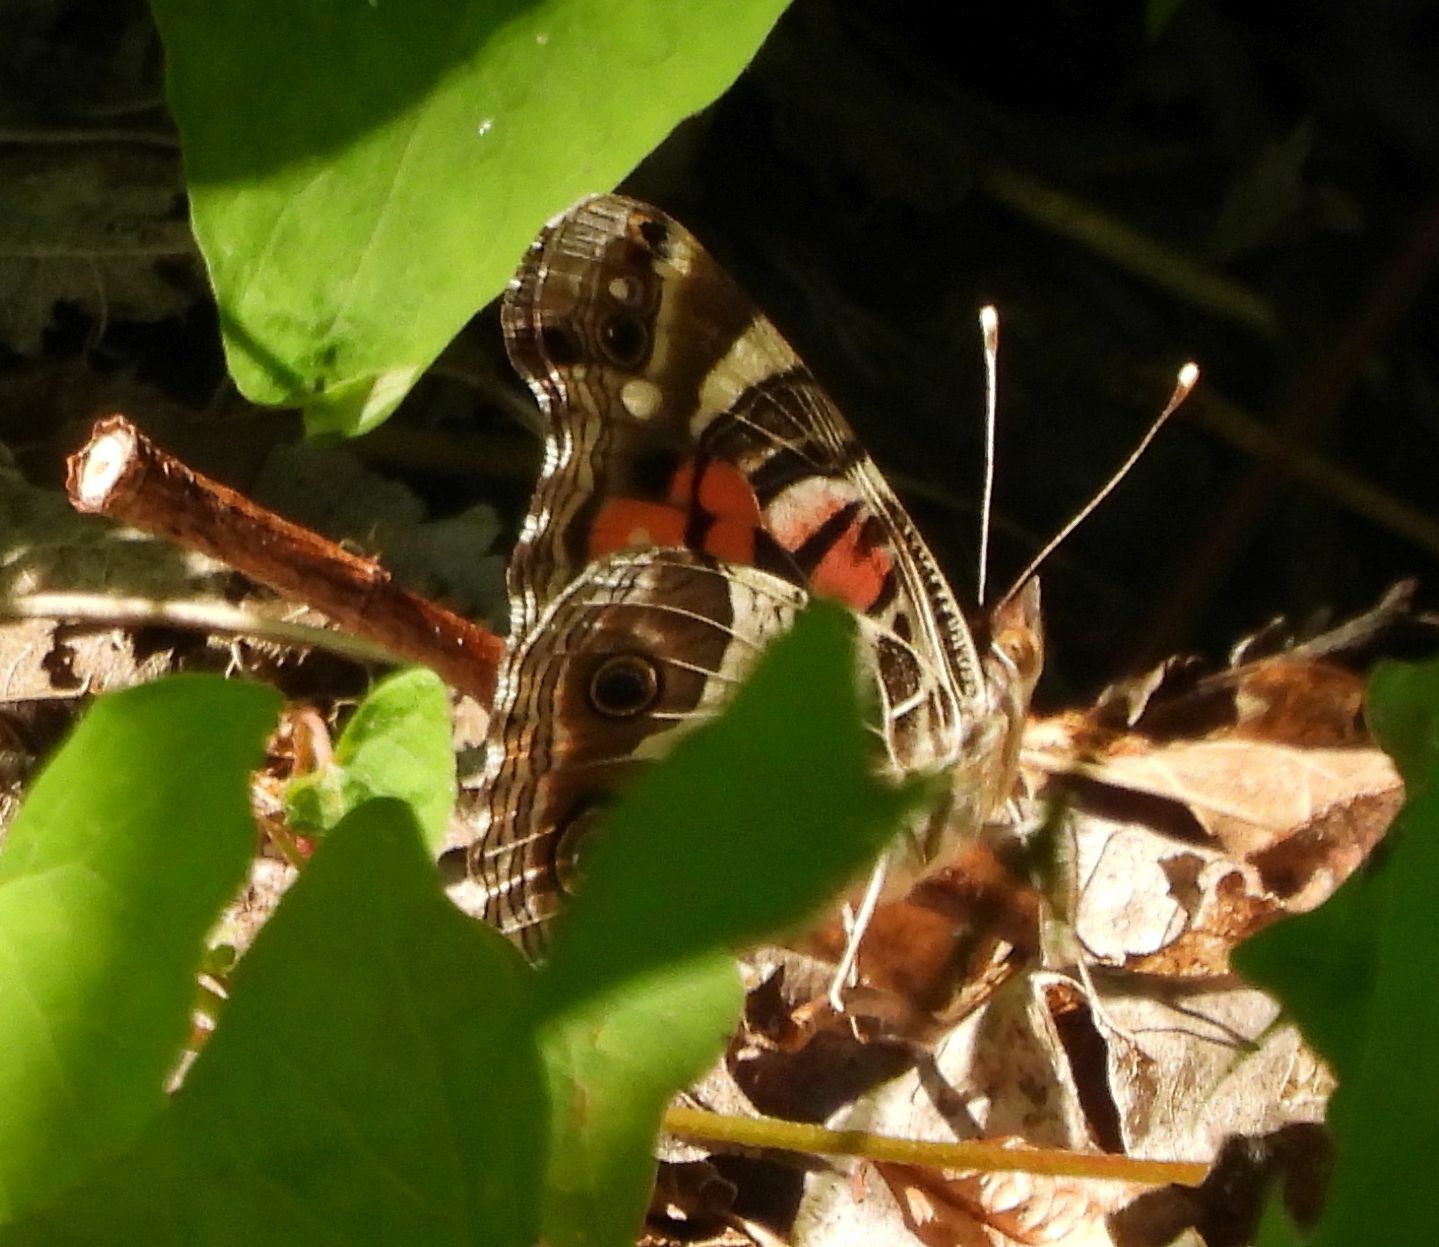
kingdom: Animalia
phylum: Arthropoda
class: Insecta
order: Lepidoptera
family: Nymphalidae
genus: Vanessa
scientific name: Vanessa virginiensis
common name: American lady
